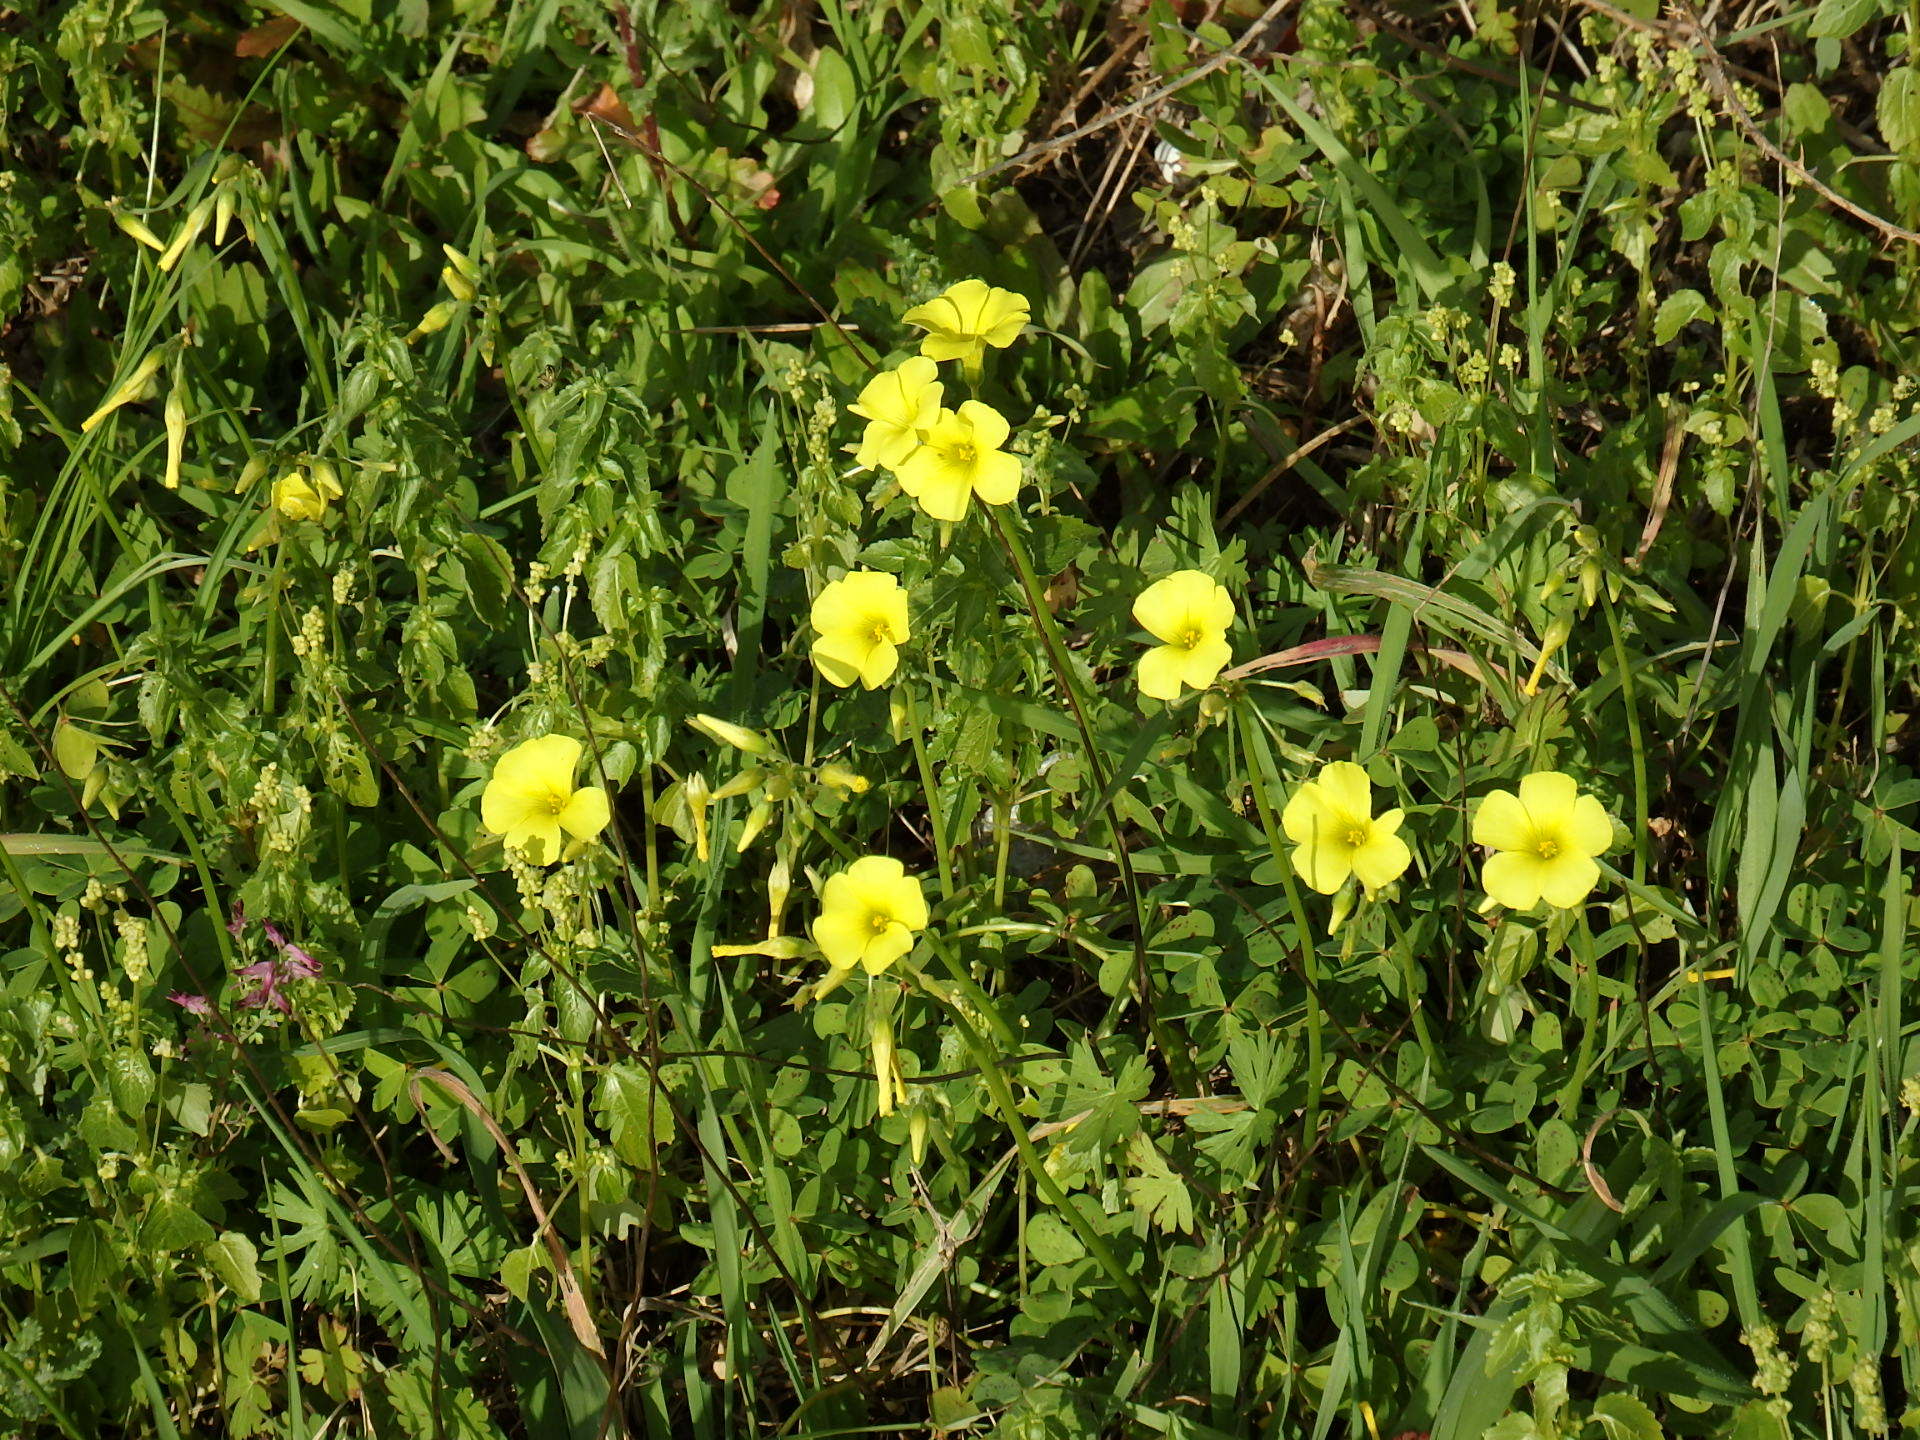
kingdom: Plantae
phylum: Tracheophyta
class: Magnoliopsida
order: Oxalidales
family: Oxalidaceae
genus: Oxalis
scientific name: Oxalis pes-caprae
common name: Bermuda-buttercup
